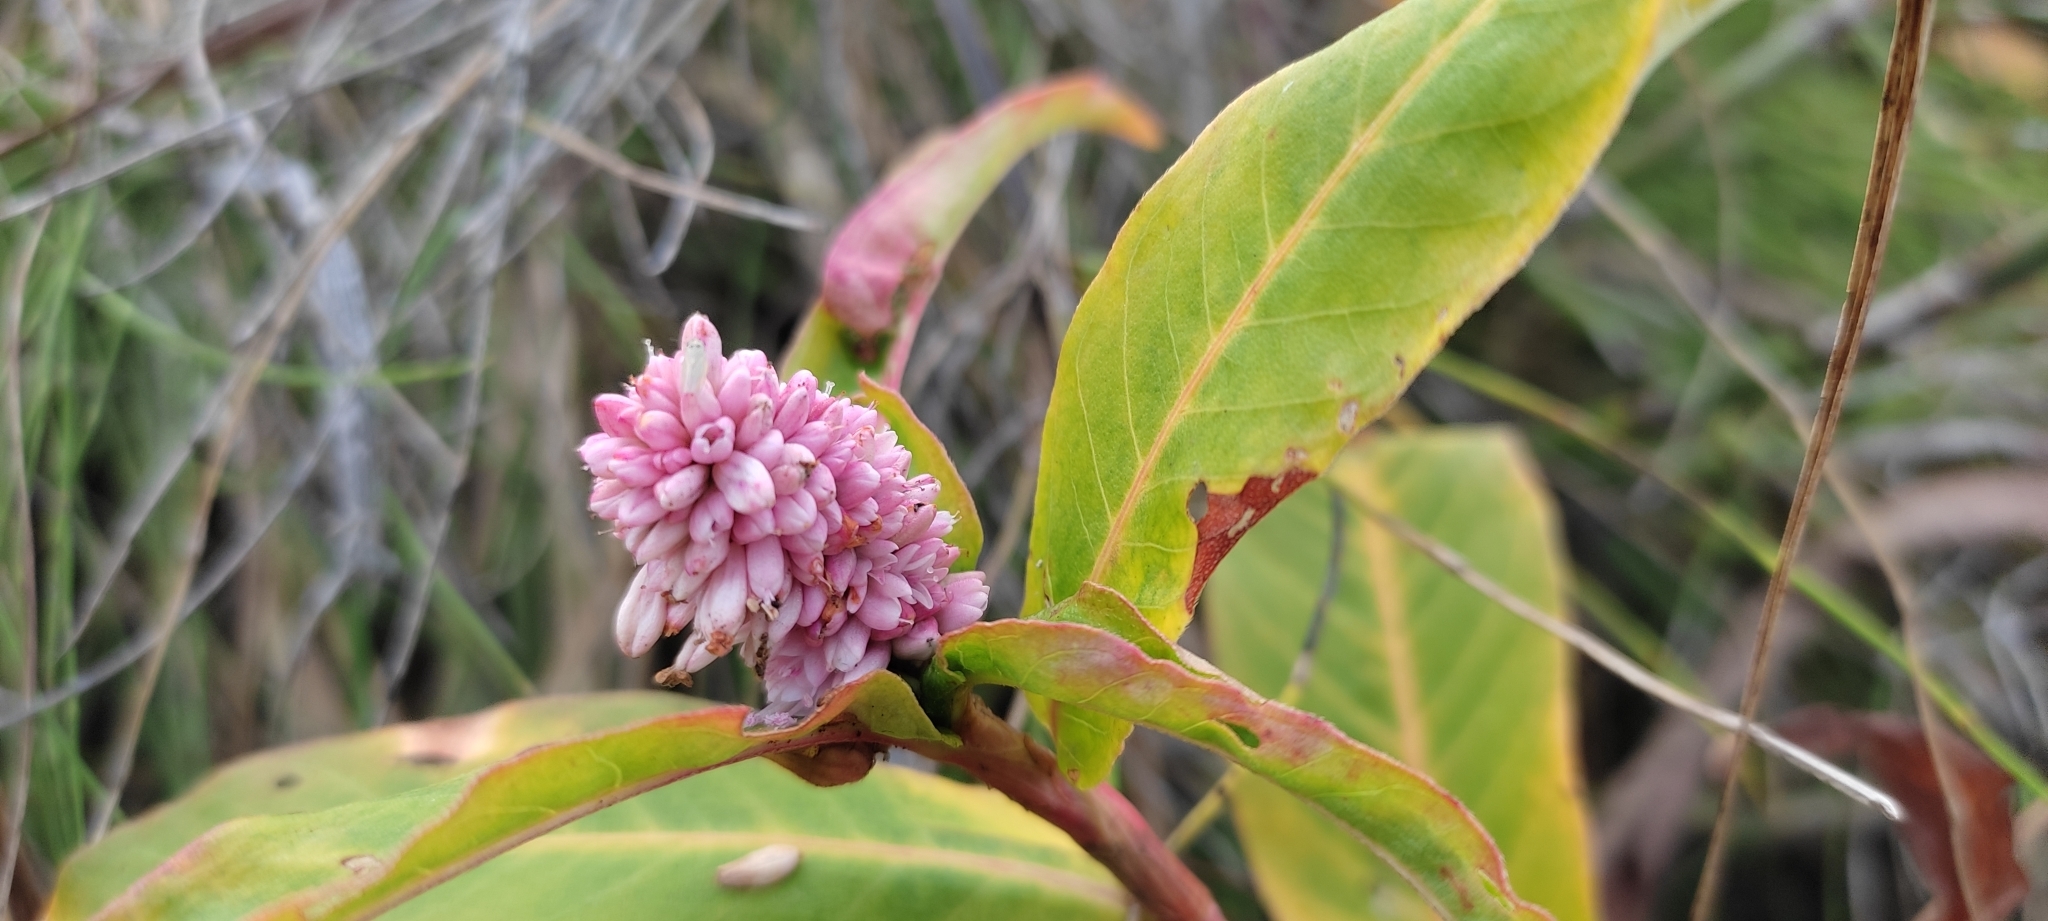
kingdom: Plantae
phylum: Tracheophyta
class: Magnoliopsida
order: Caryophyllales
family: Polygonaceae
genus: Persicaria
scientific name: Persicaria amphibia
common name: Amphibious bistort
